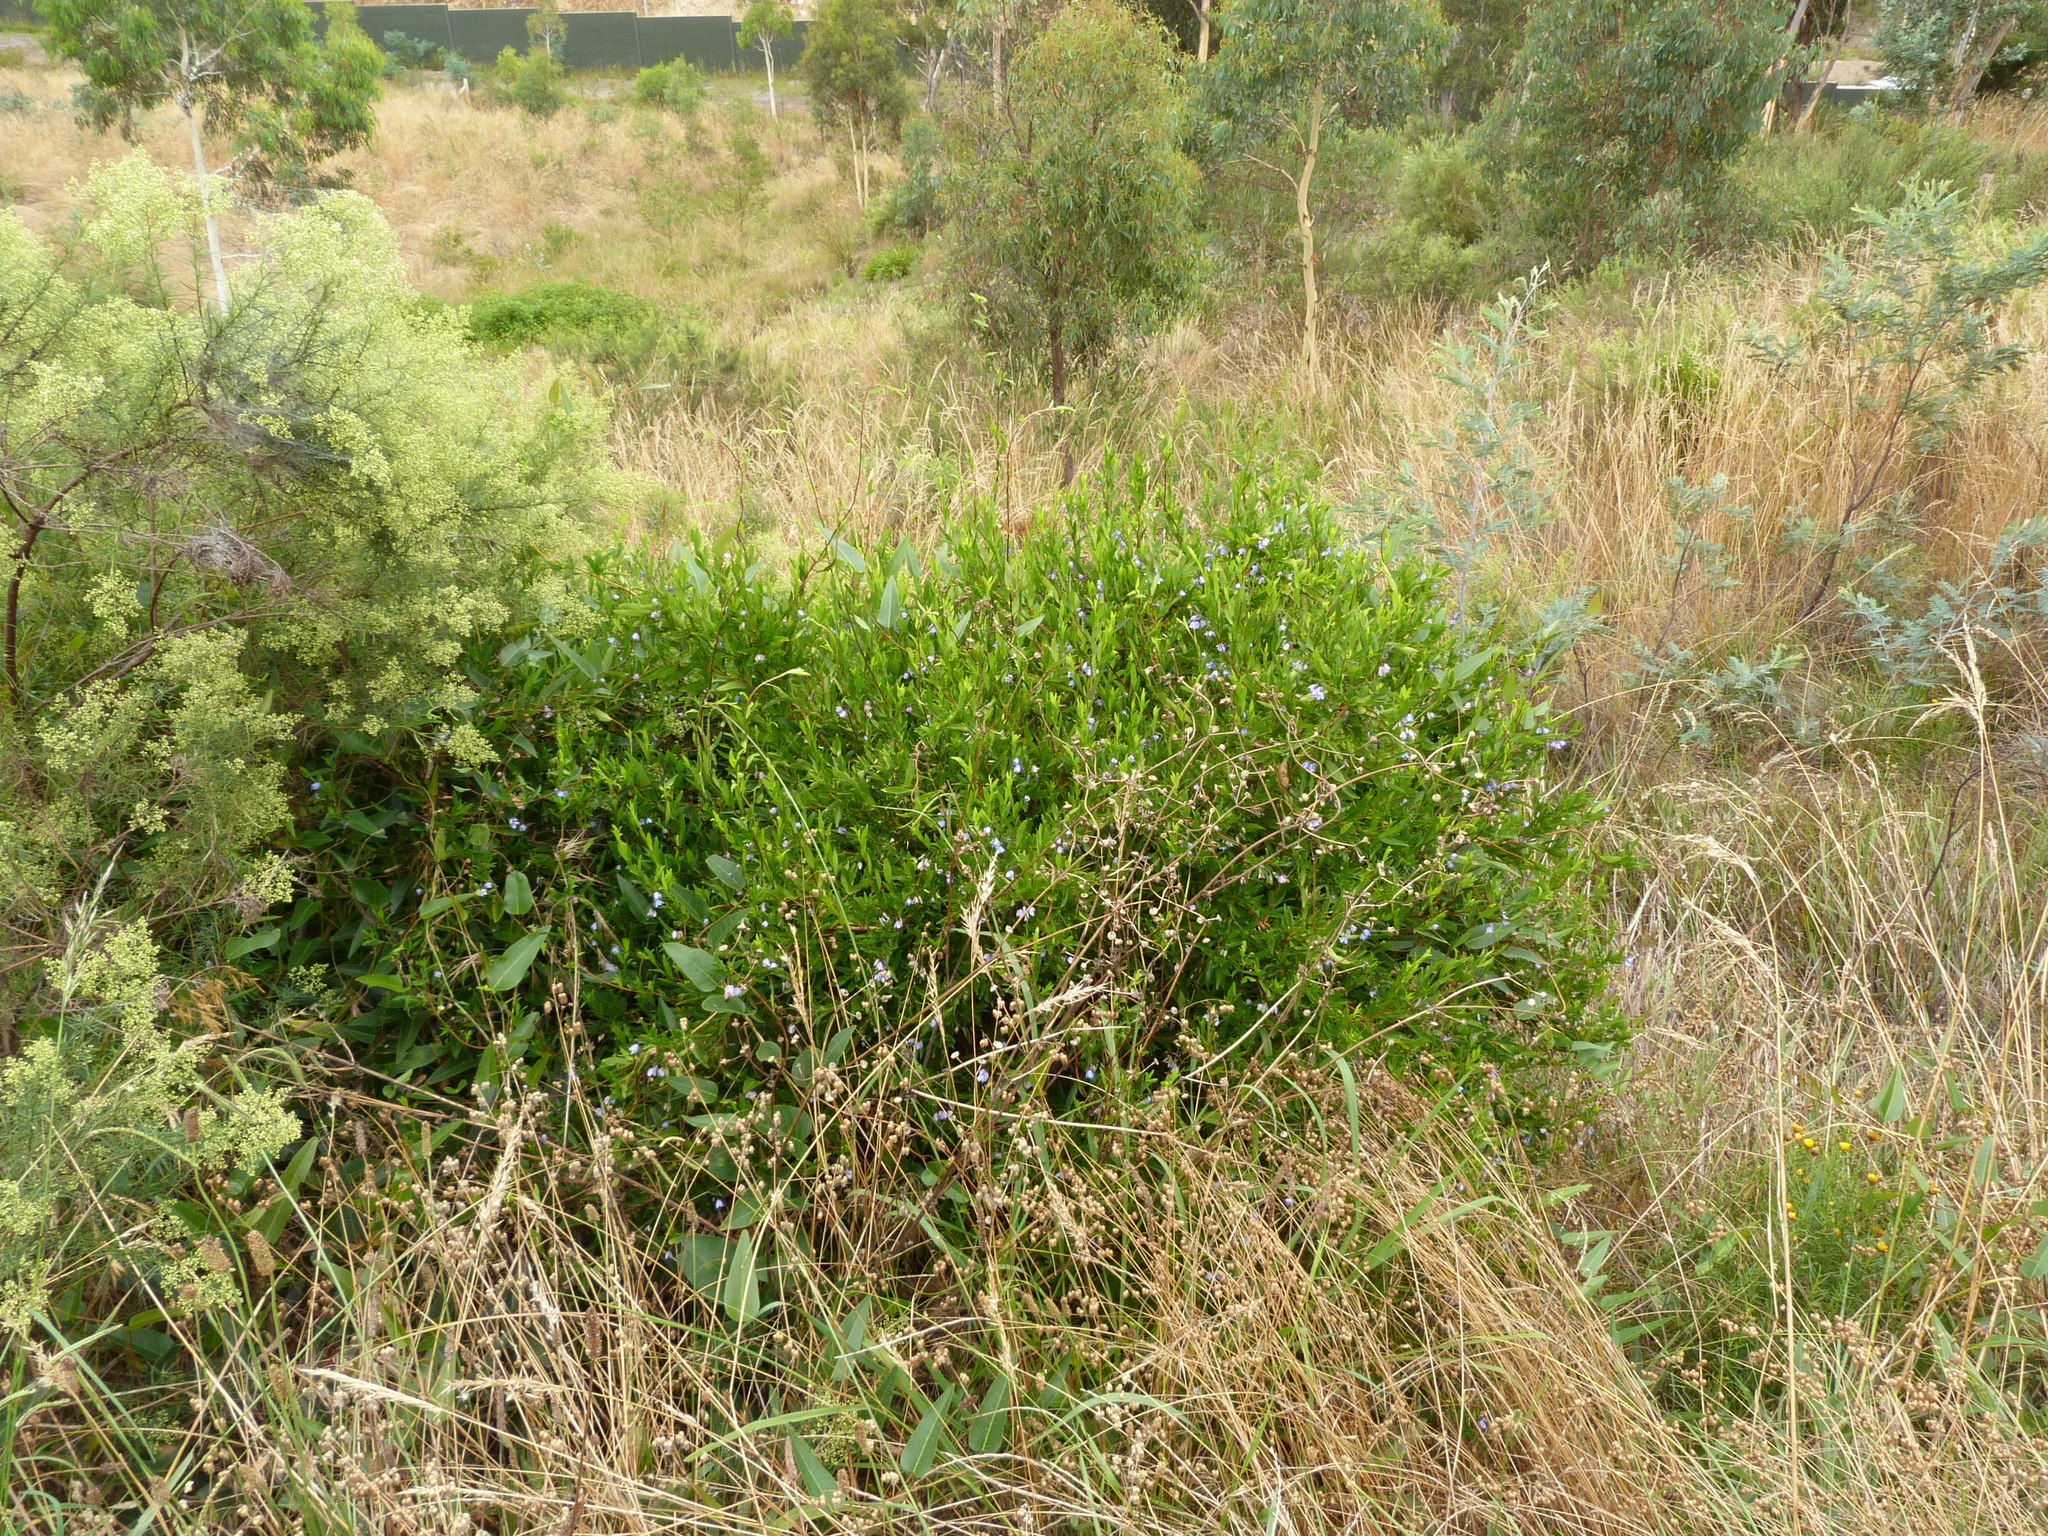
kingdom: Plantae
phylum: Tracheophyta
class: Magnoliopsida
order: Apiales
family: Pittosporaceae
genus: Billardiera
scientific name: Billardiera fusiformis
